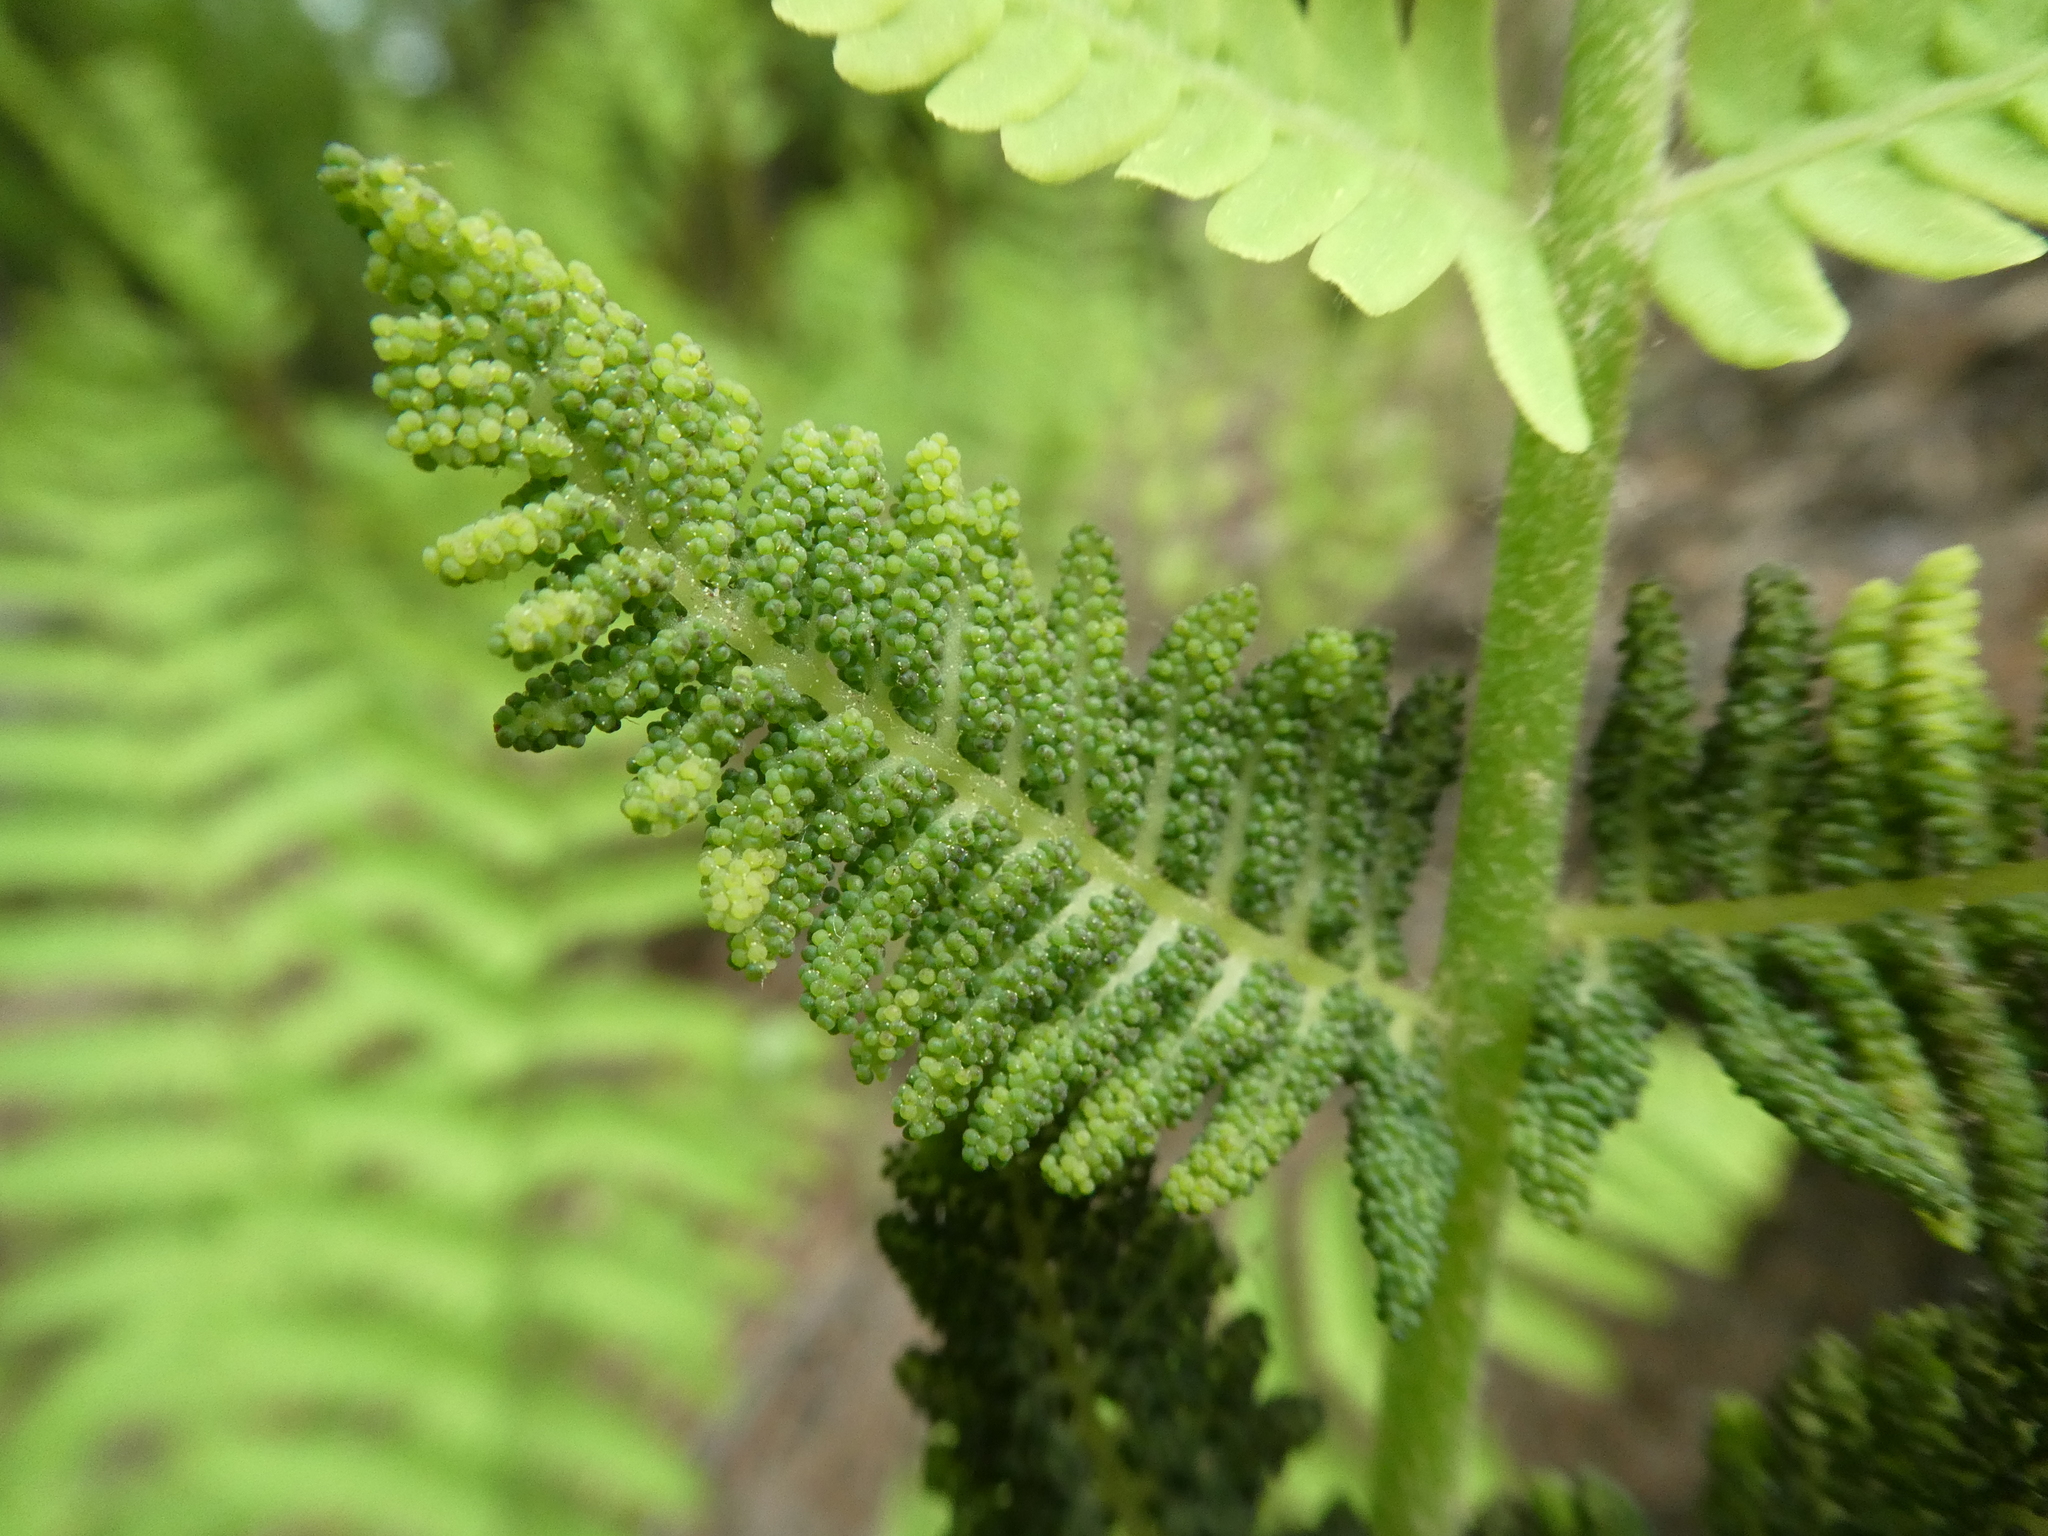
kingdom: Plantae
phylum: Tracheophyta
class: Polypodiopsida
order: Osmundales
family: Osmundaceae
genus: Claytosmunda
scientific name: Claytosmunda claytoniana
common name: Clayton's fern
